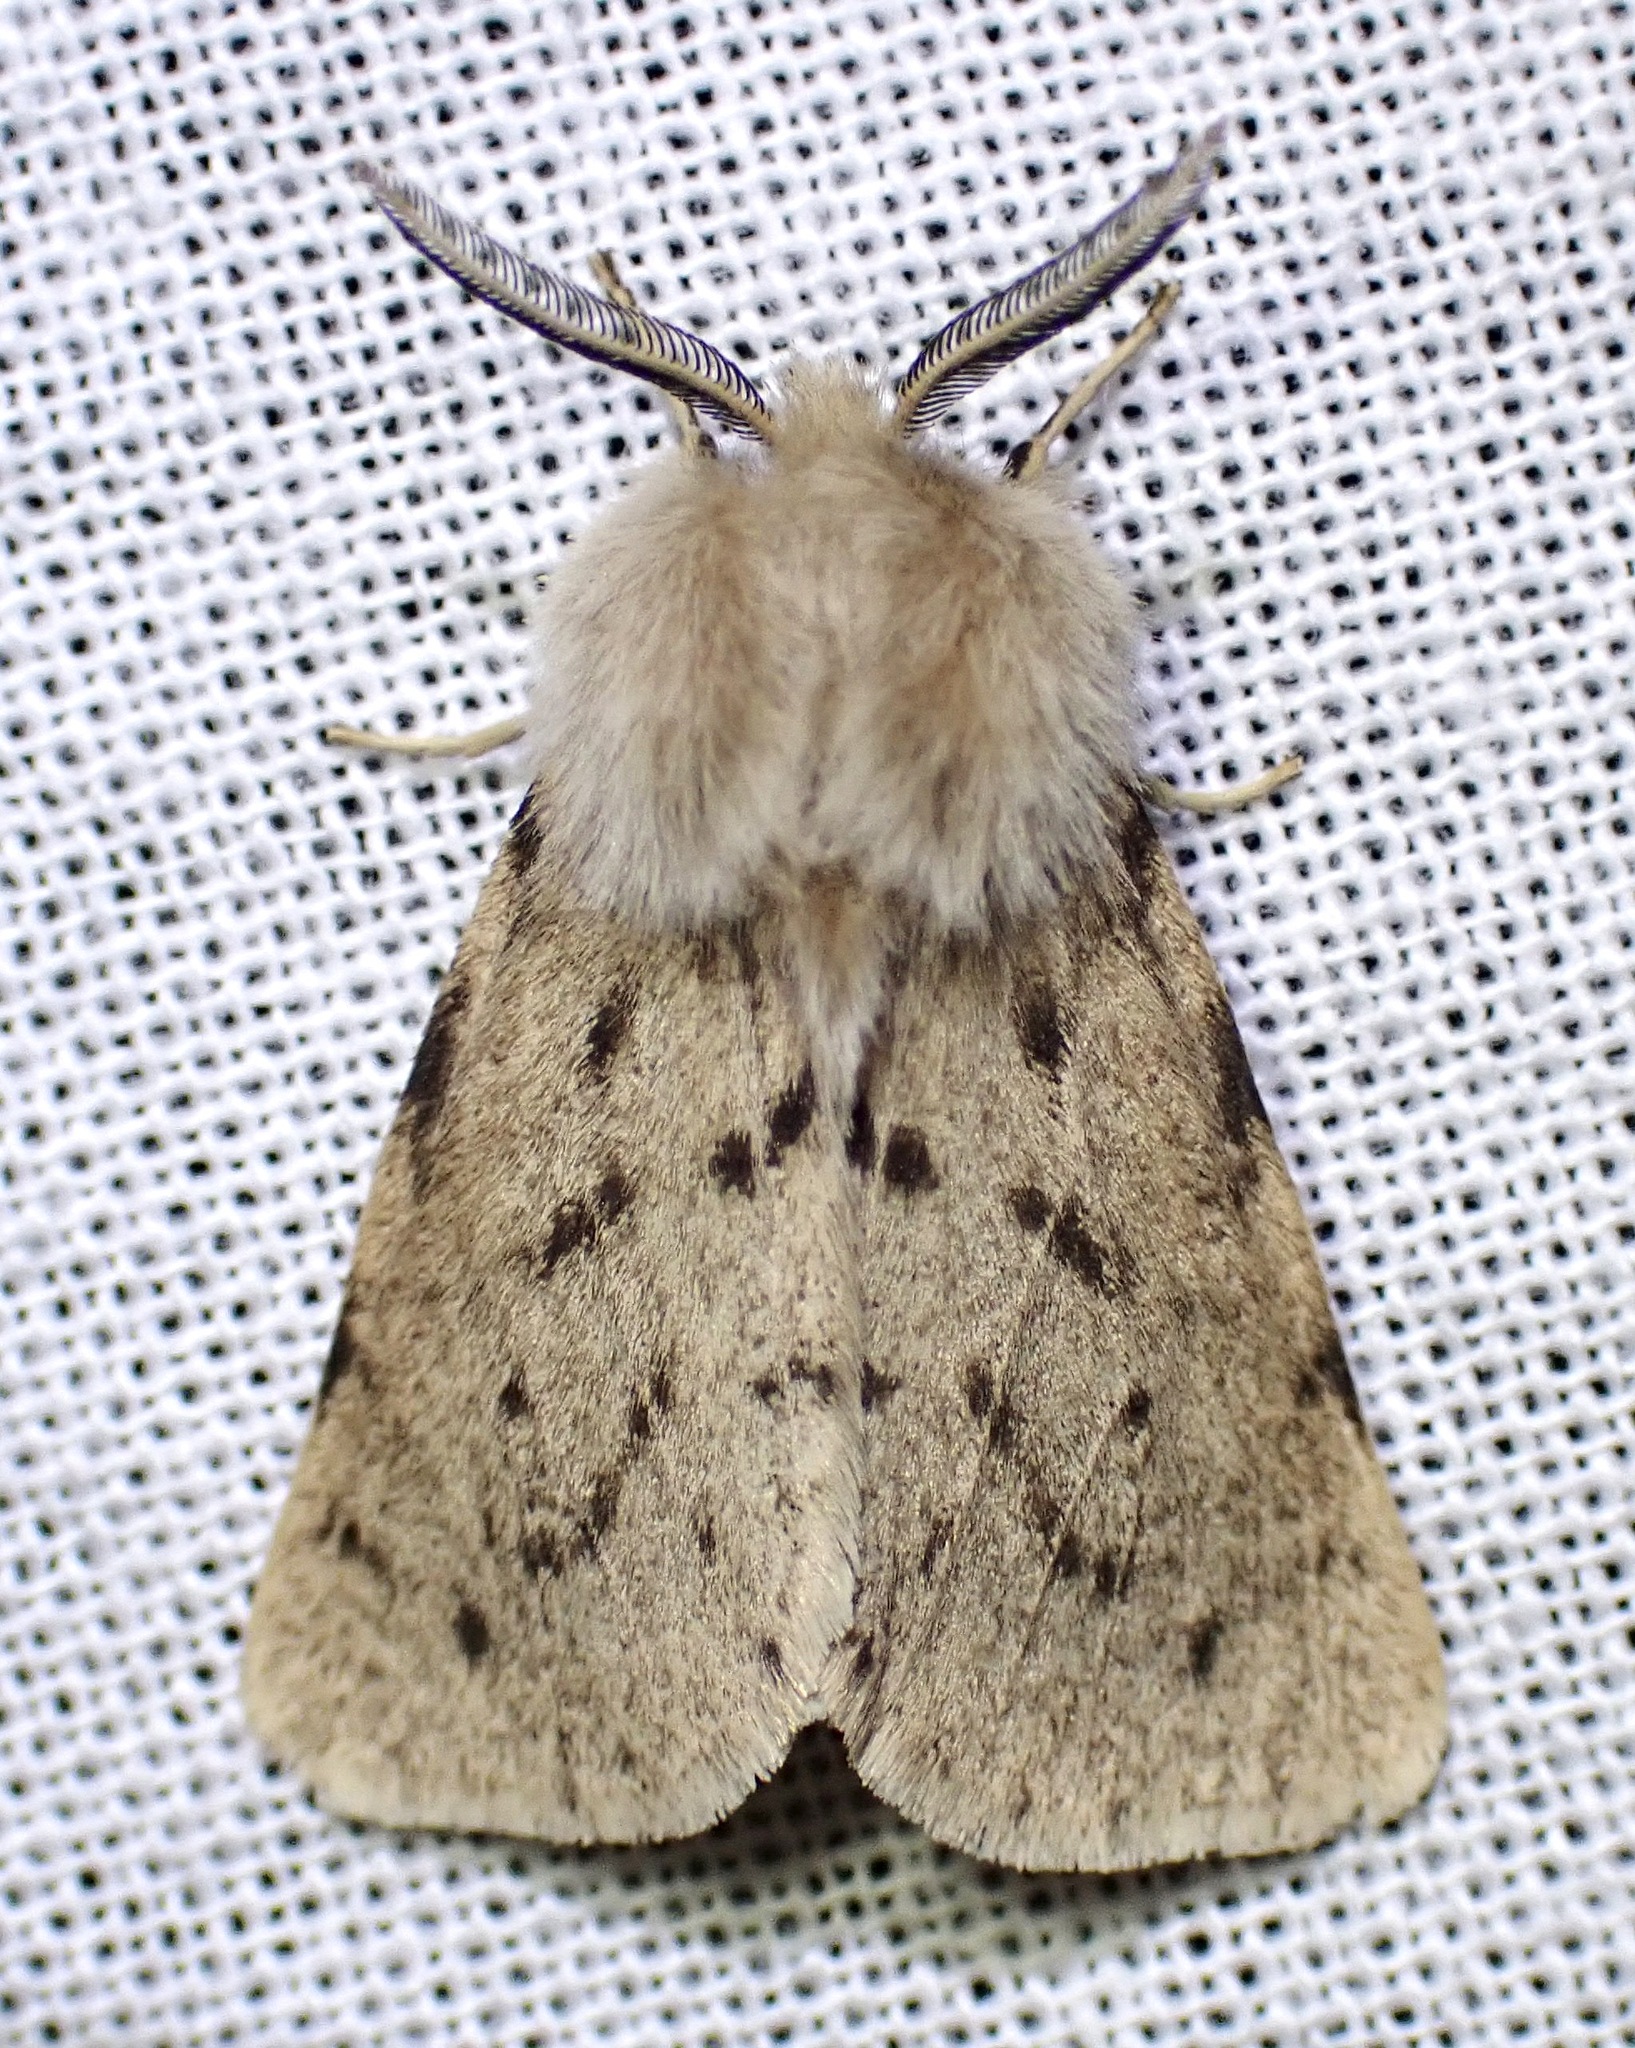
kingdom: Animalia
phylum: Arthropoda
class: Insecta
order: Lepidoptera
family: Erebidae
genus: Spilosoma
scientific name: Spilosoma vagans
